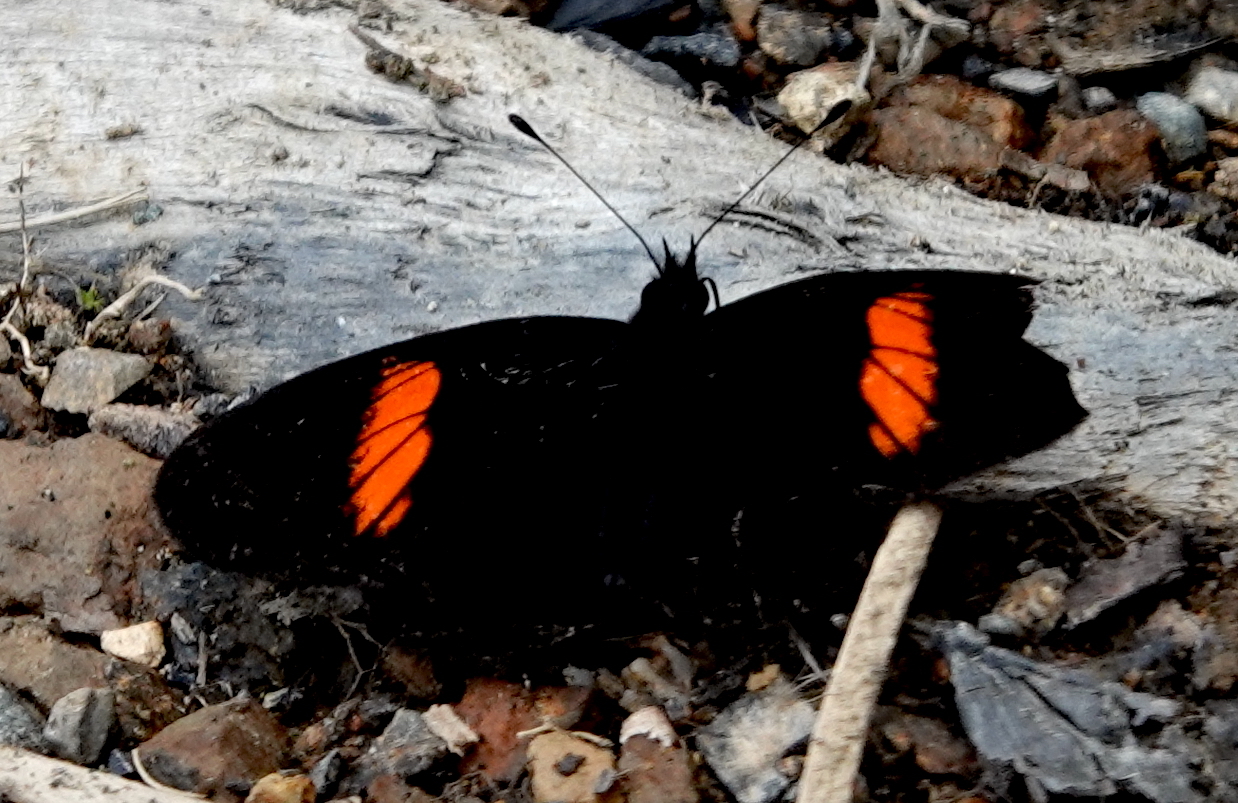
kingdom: Animalia
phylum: Arthropoda
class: Insecta
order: Lepidoptera
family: Nymphalidae
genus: Castilia
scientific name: Castilia castilla
